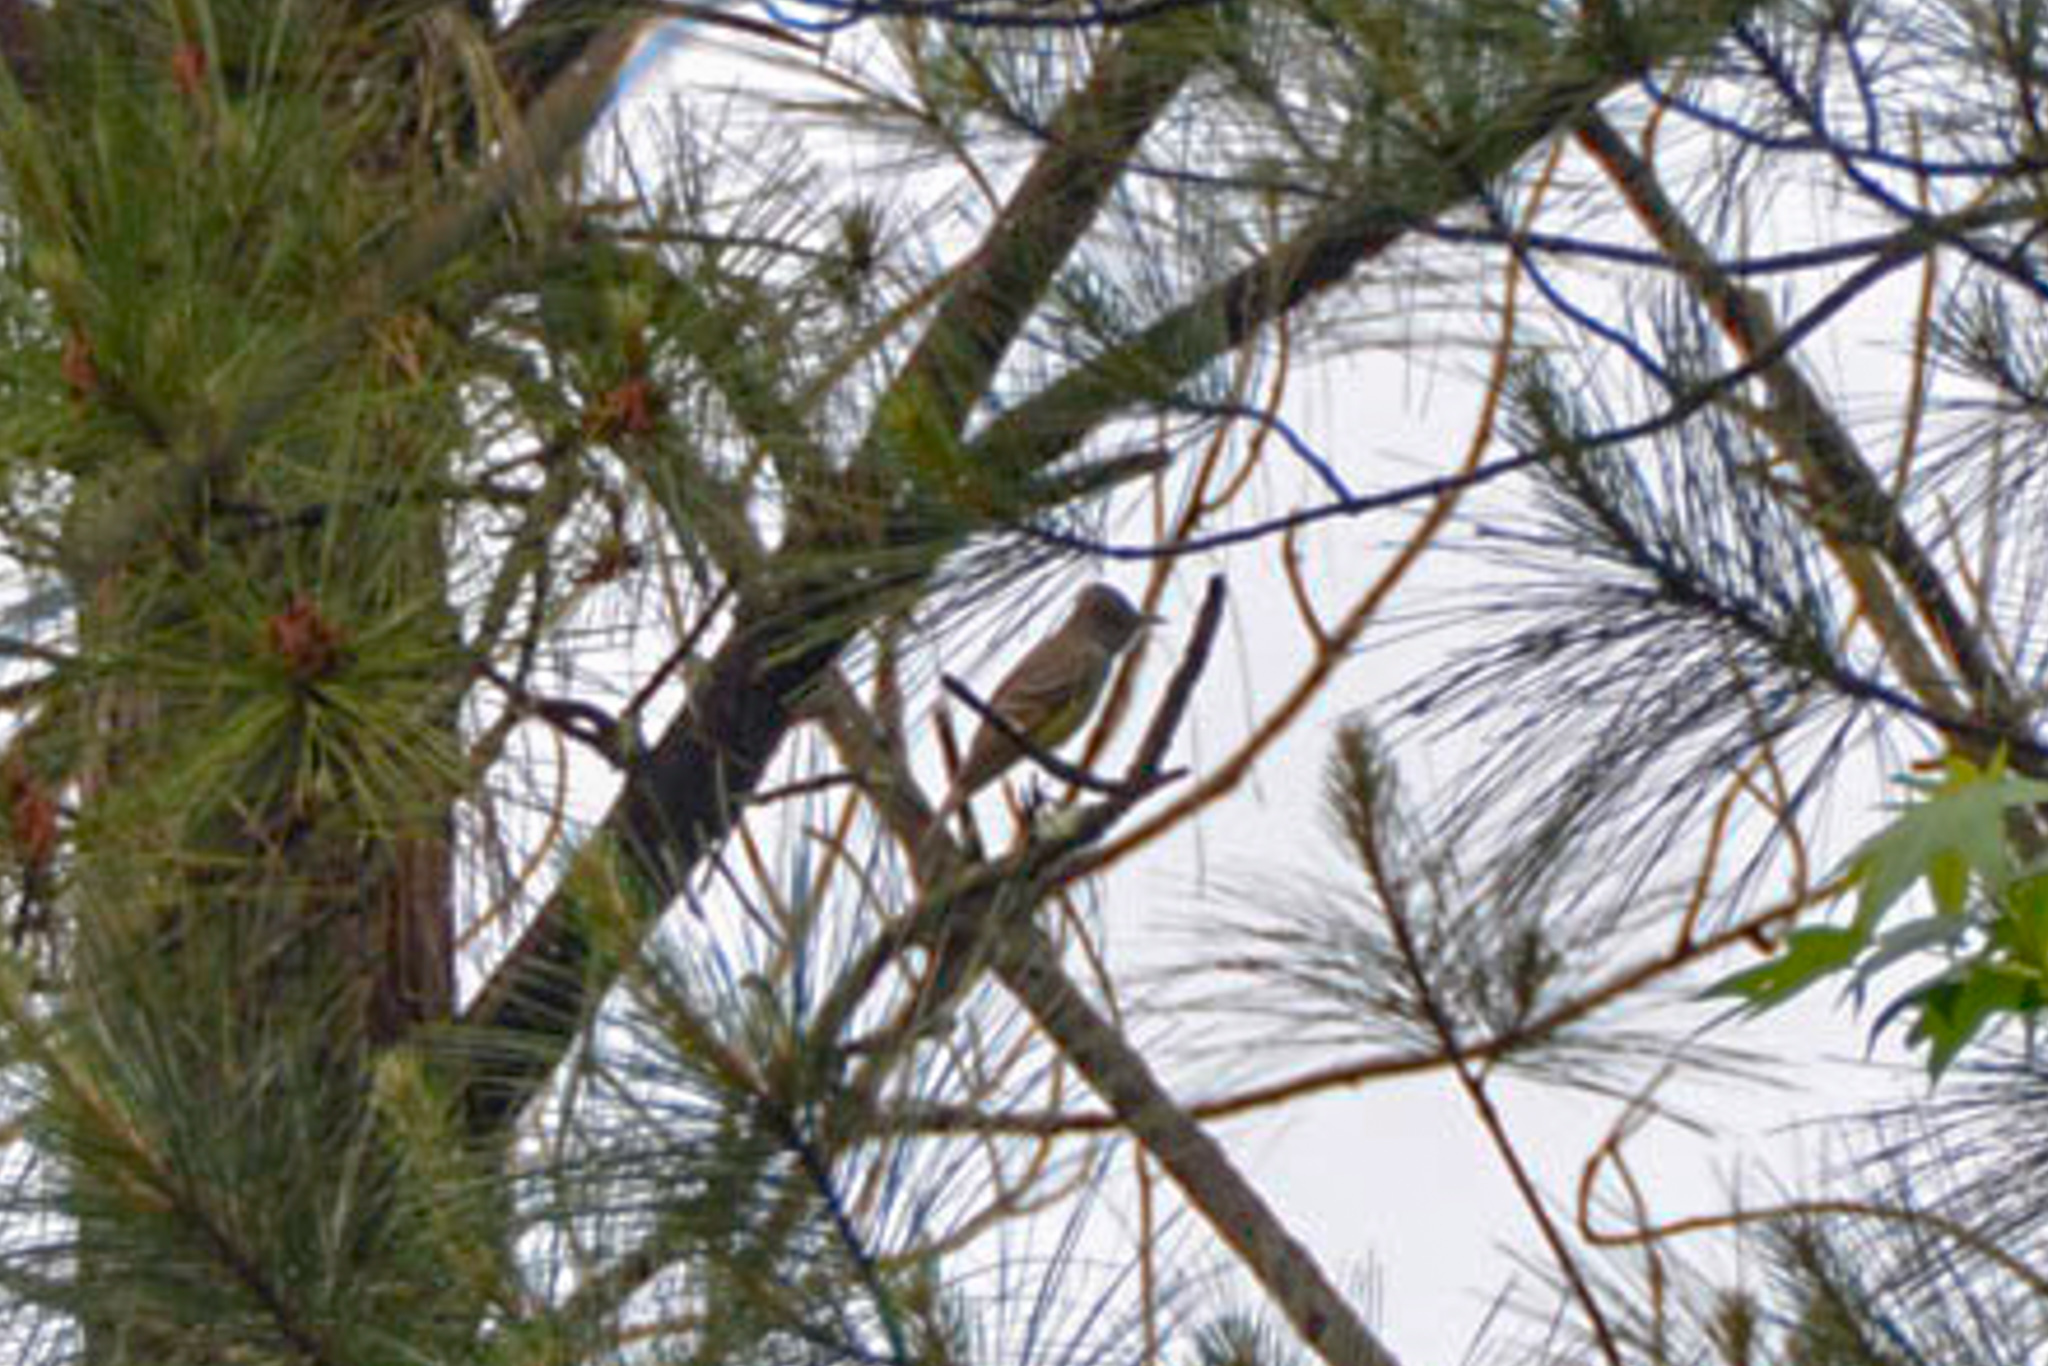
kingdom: Animalia
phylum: Chordata
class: Aves
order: Passeriformes
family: Tyrannidae
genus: Myiarchus
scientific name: Myiarchus crinitus
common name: Great crested flycatcher
